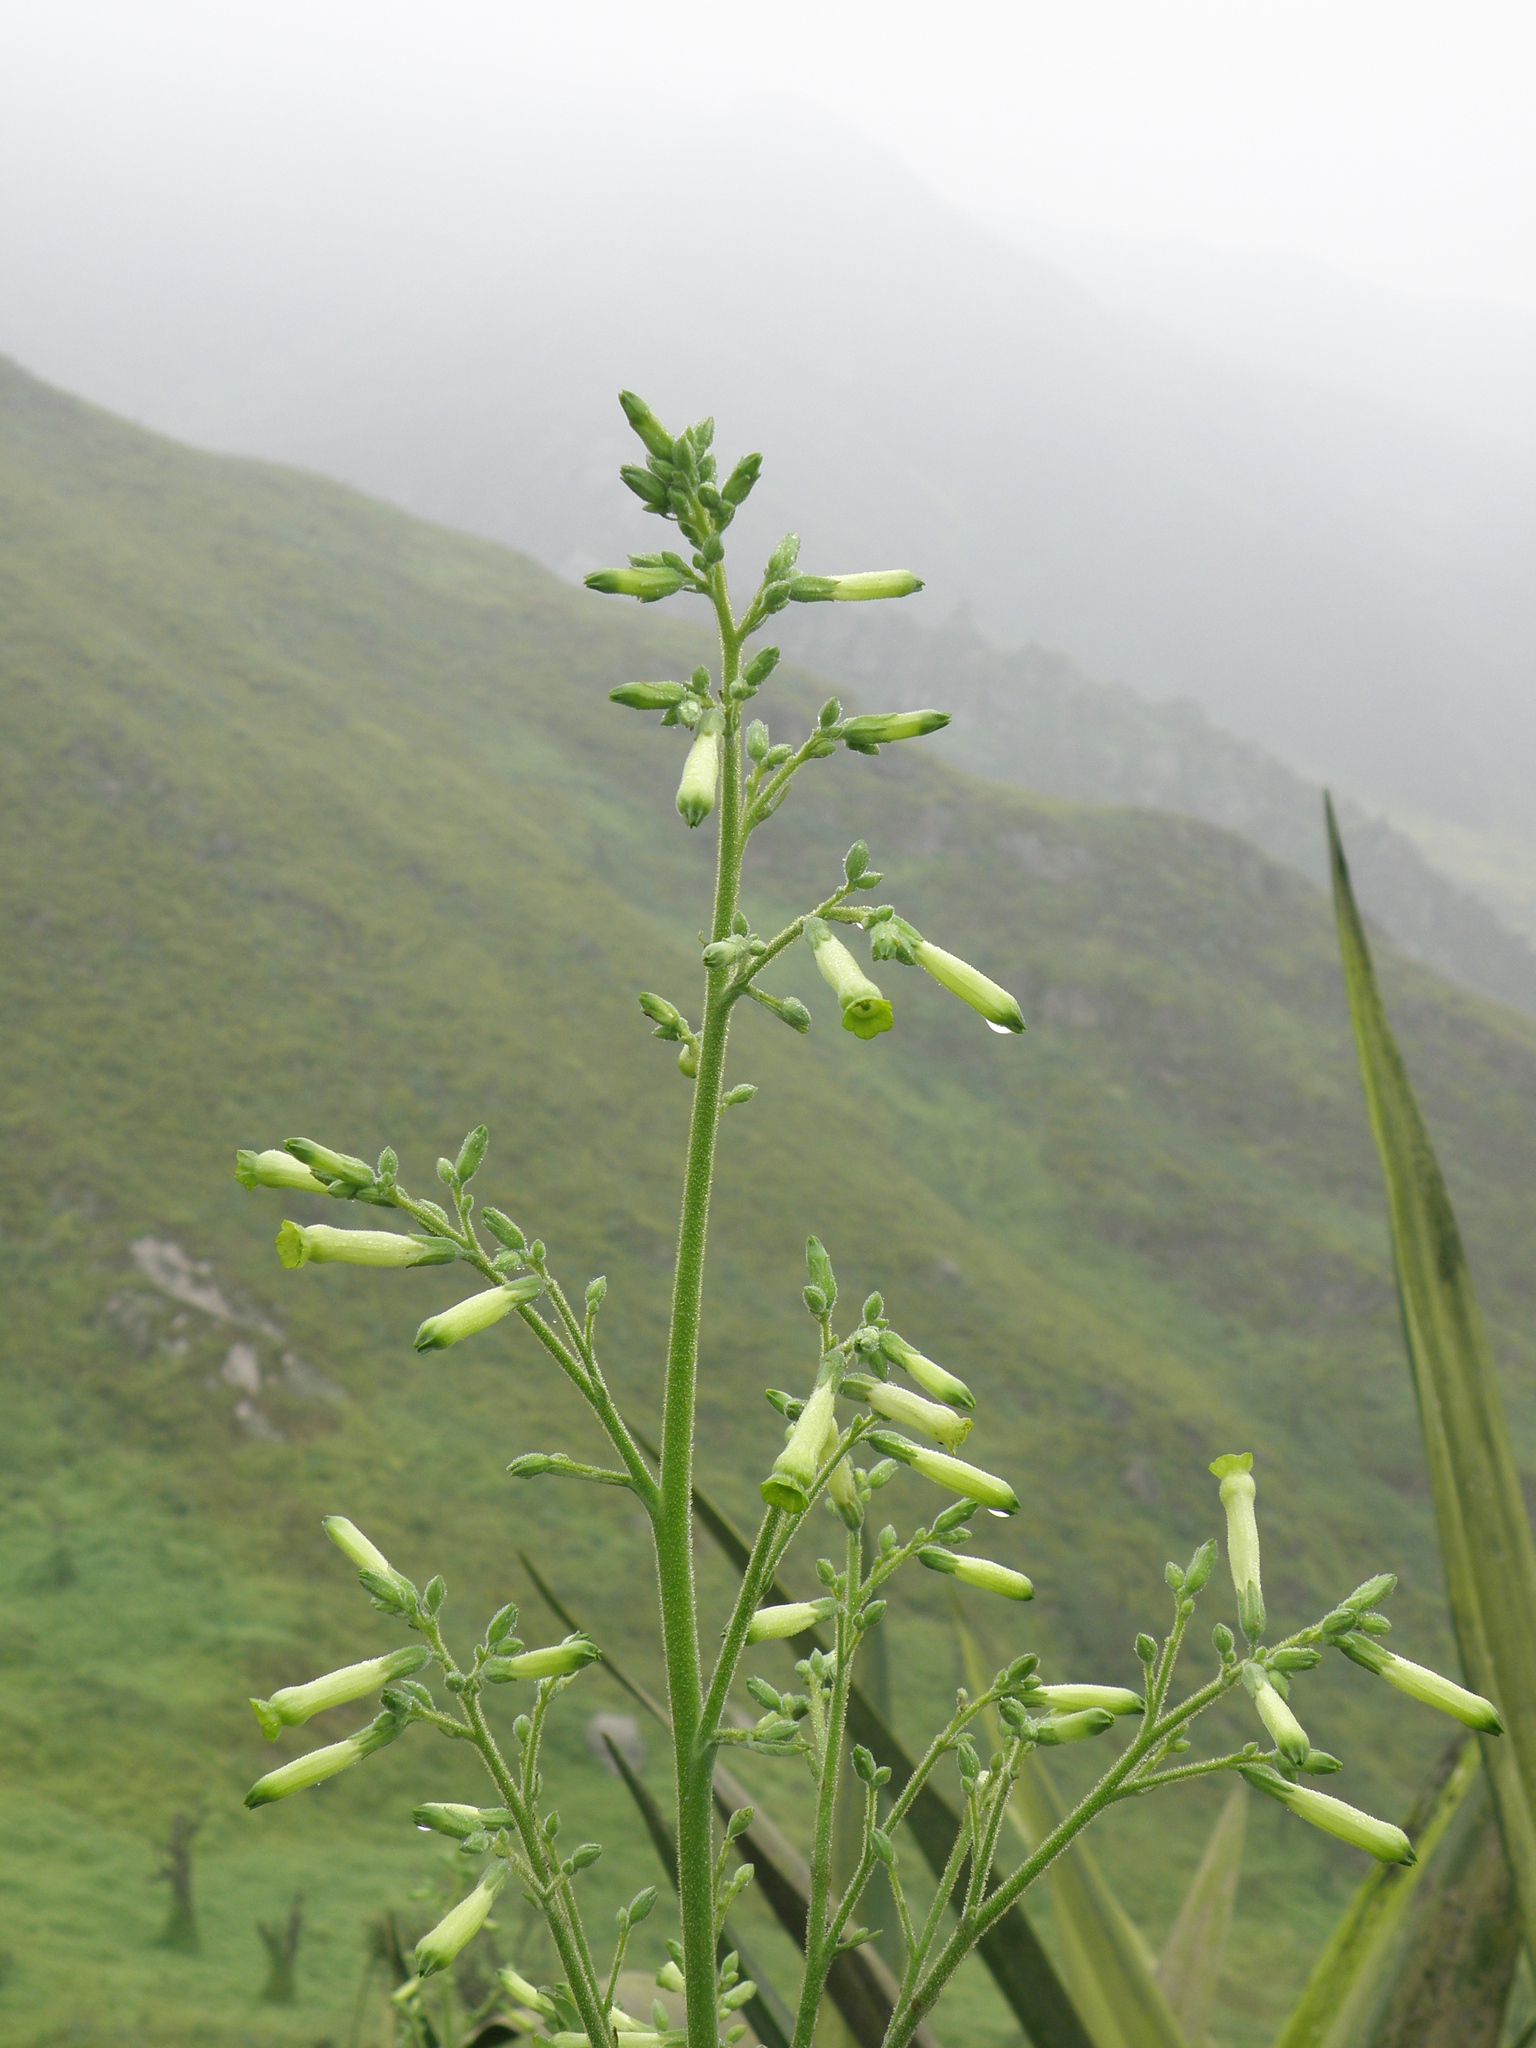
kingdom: Plantae
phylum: Tracheophyta
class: Magnoliopsida
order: Solanales
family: Solanaceae
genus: Nicotiana
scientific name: Nicotiana paniculata
